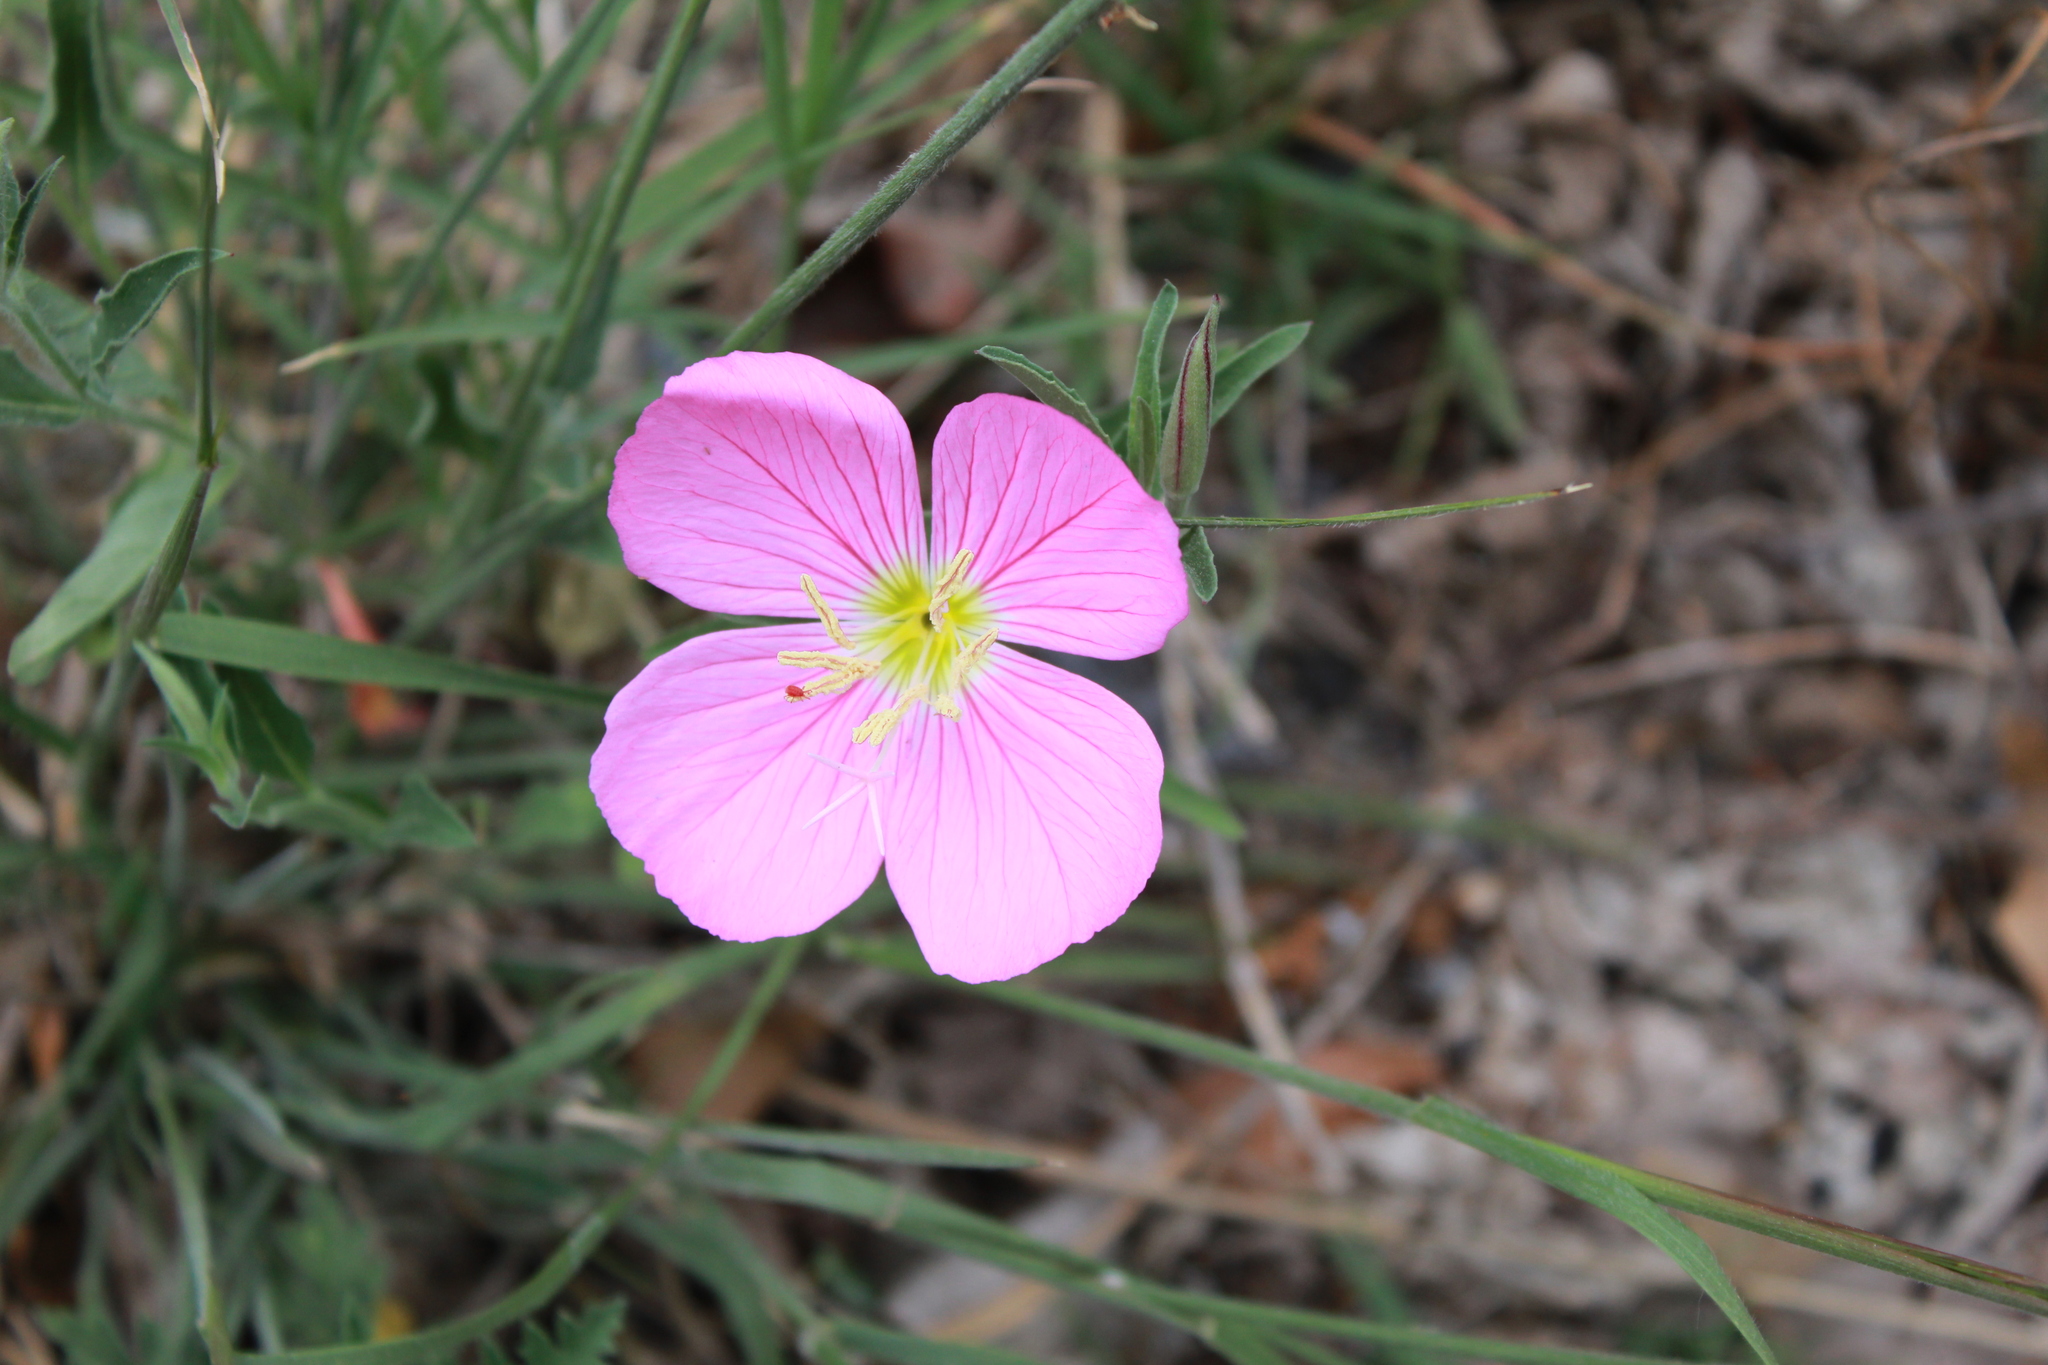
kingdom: Plantae
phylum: Tracheophyta
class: Magnoliopsida
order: Myrtales
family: Onagraceae
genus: Oenothera
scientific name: Oenothera speciosa
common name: White evening-primrose
